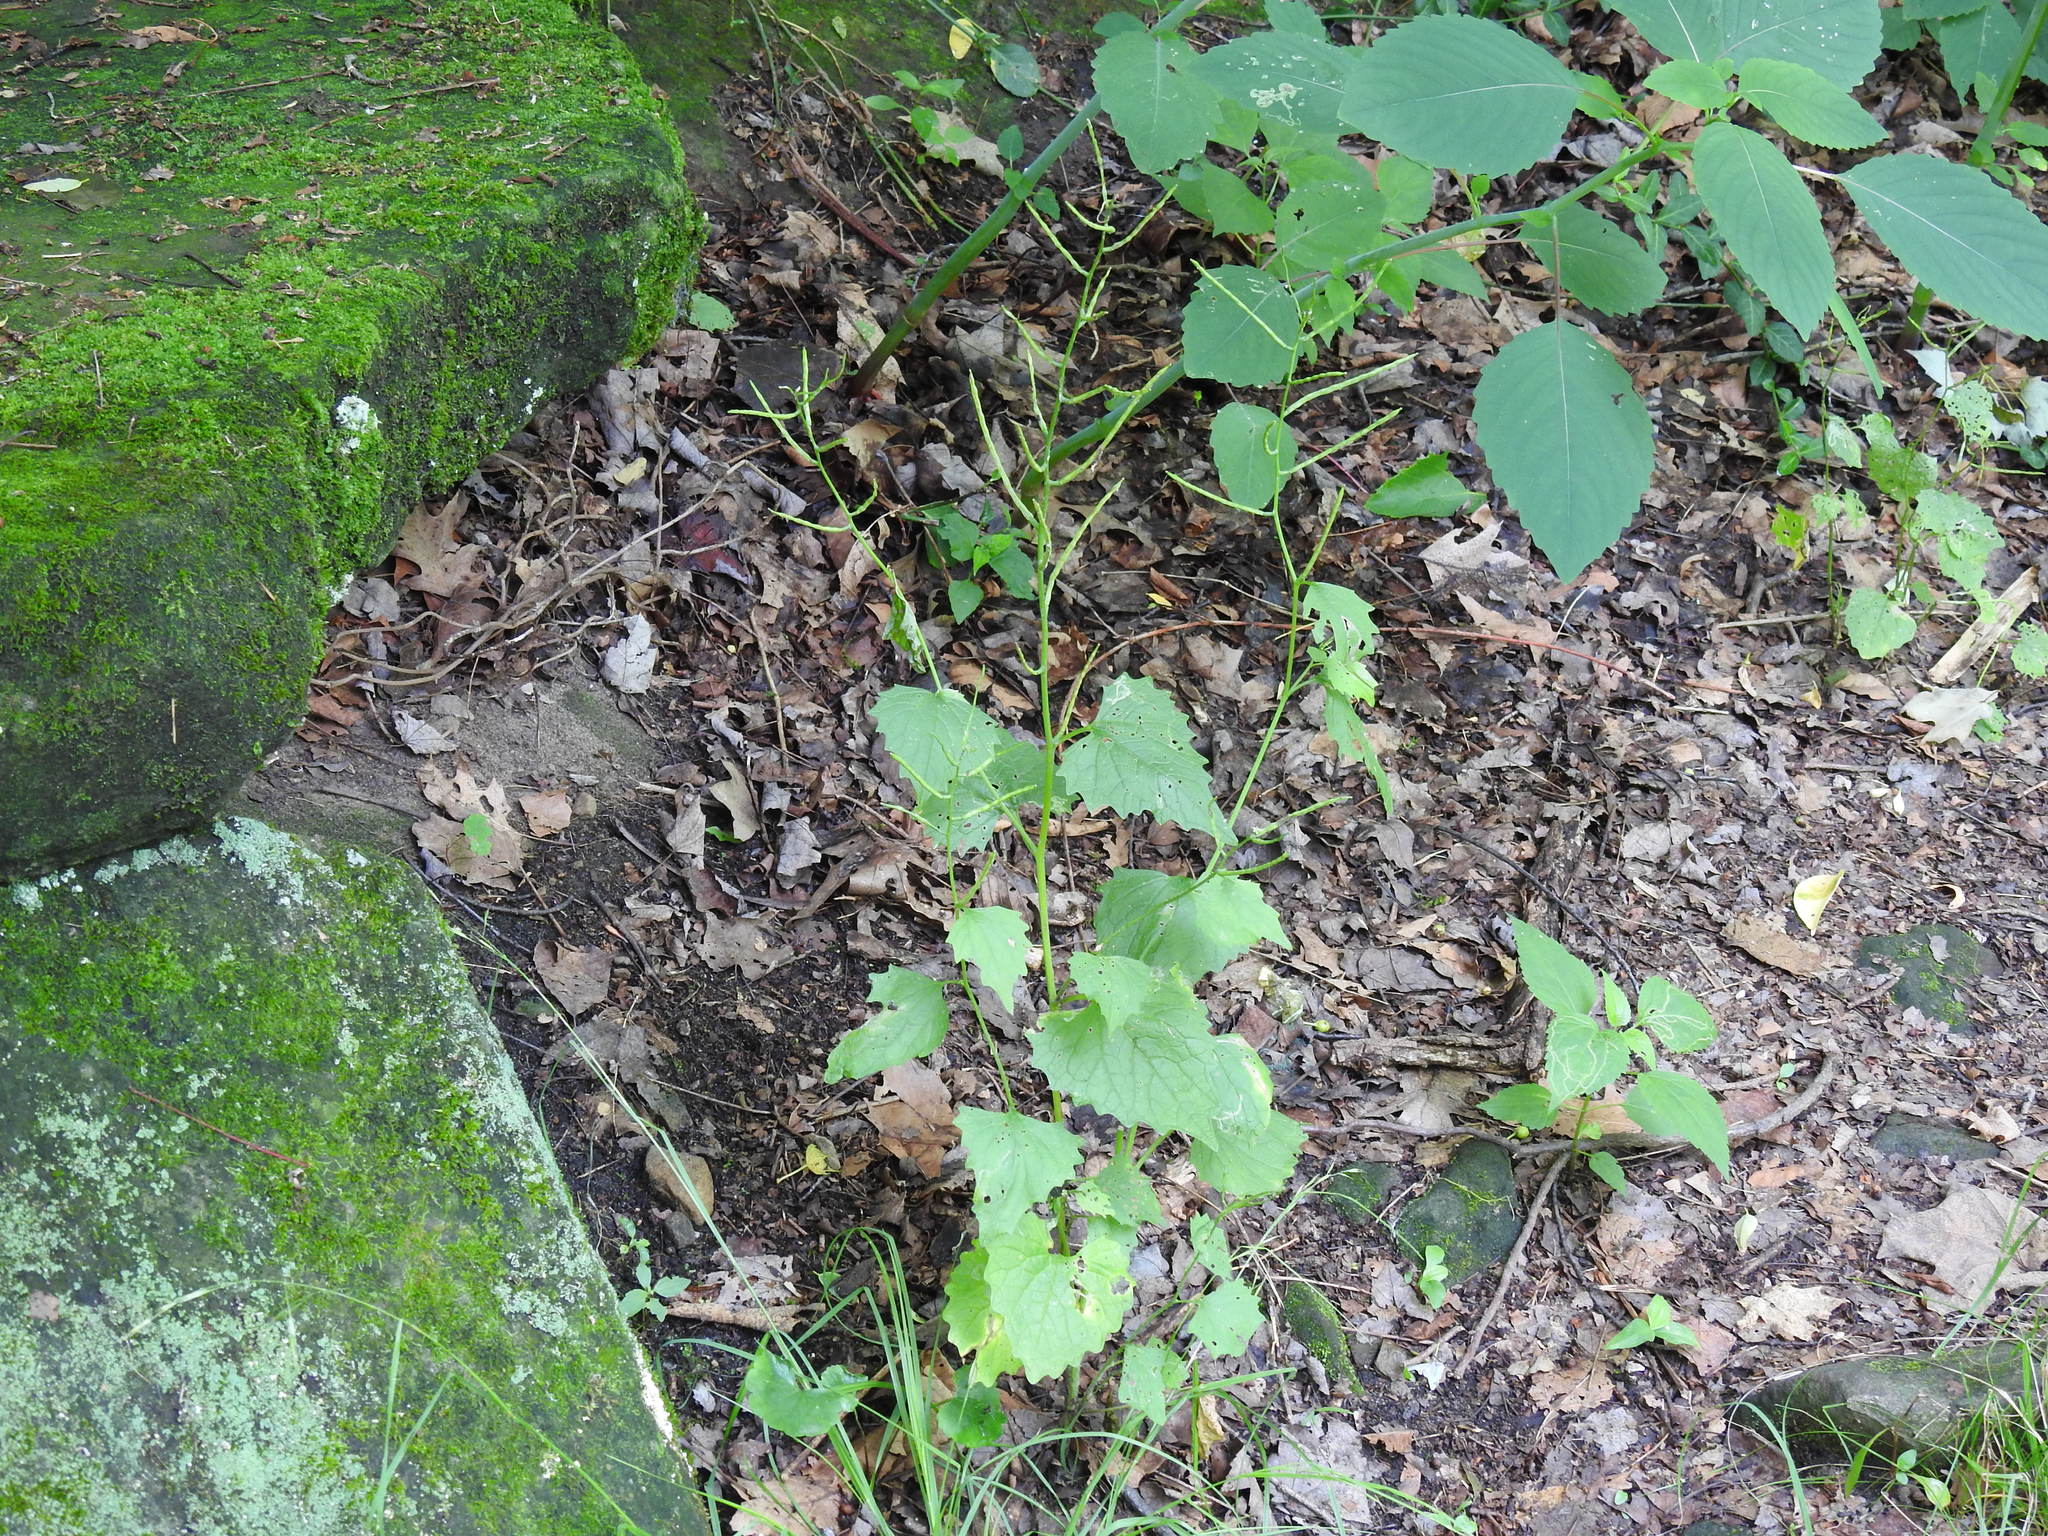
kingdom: Plantae
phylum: Tracheophyta
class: Magnoliopsida
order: Brassicales
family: Brassicaceae
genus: Alliaria
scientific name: Alliaria petiolata
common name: Garlic mustard
